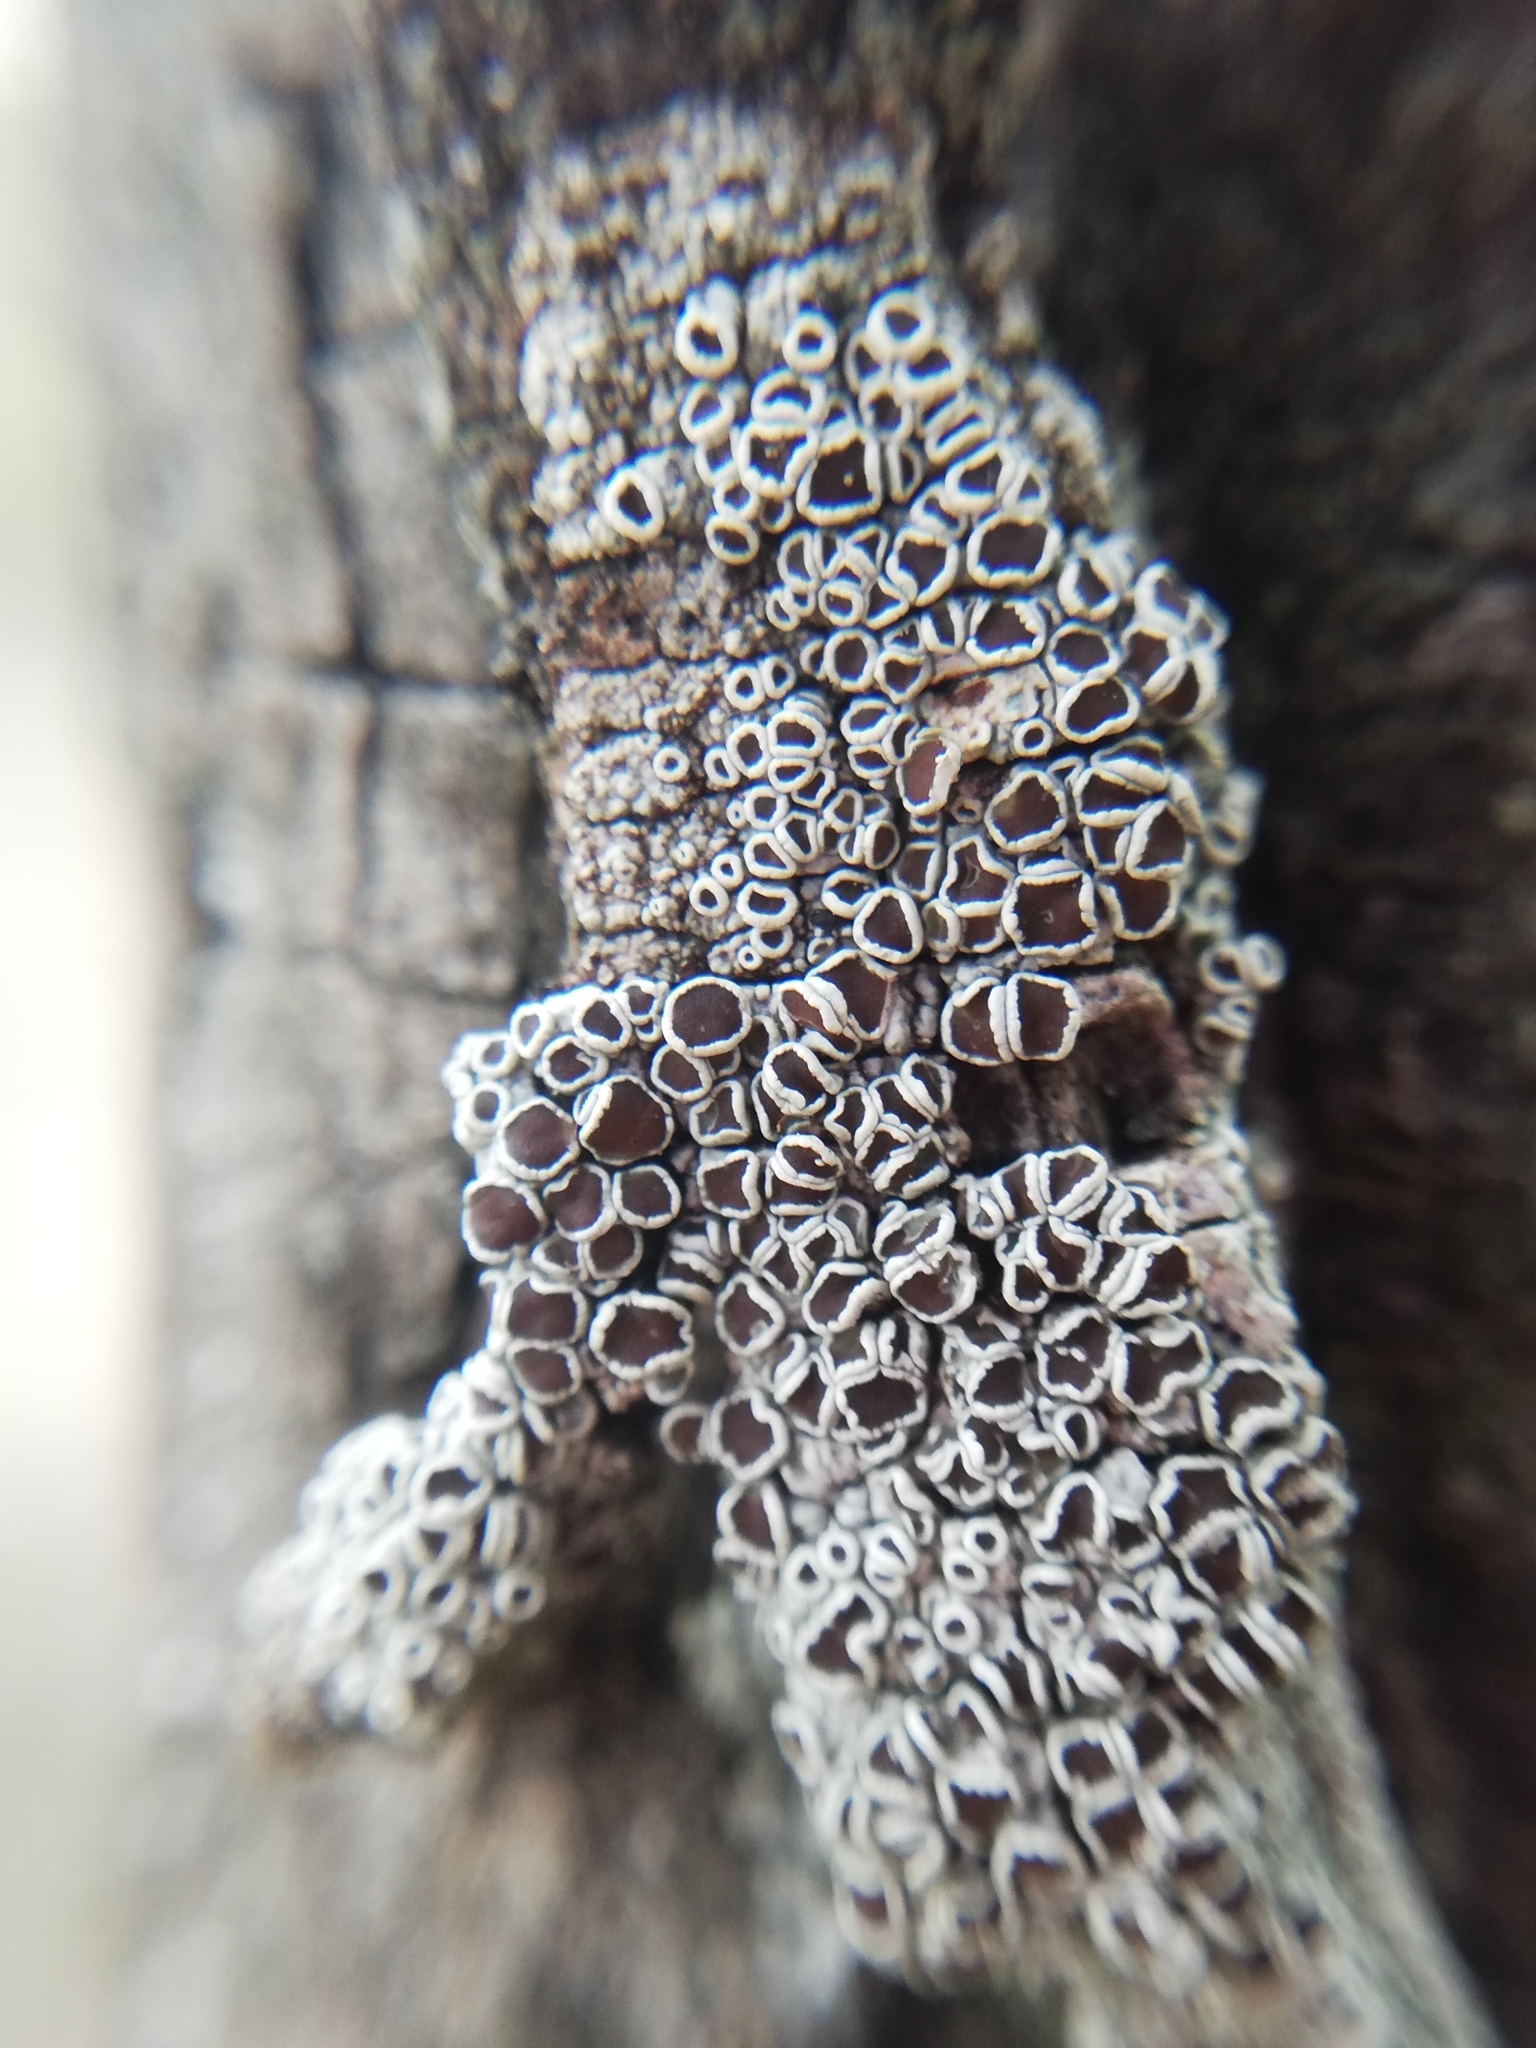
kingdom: Fungi
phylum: Ascomycota
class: Lecanoromycetes
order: Lecanorales
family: Lecanoraceae
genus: Lecanora
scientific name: Lecanora horiza
